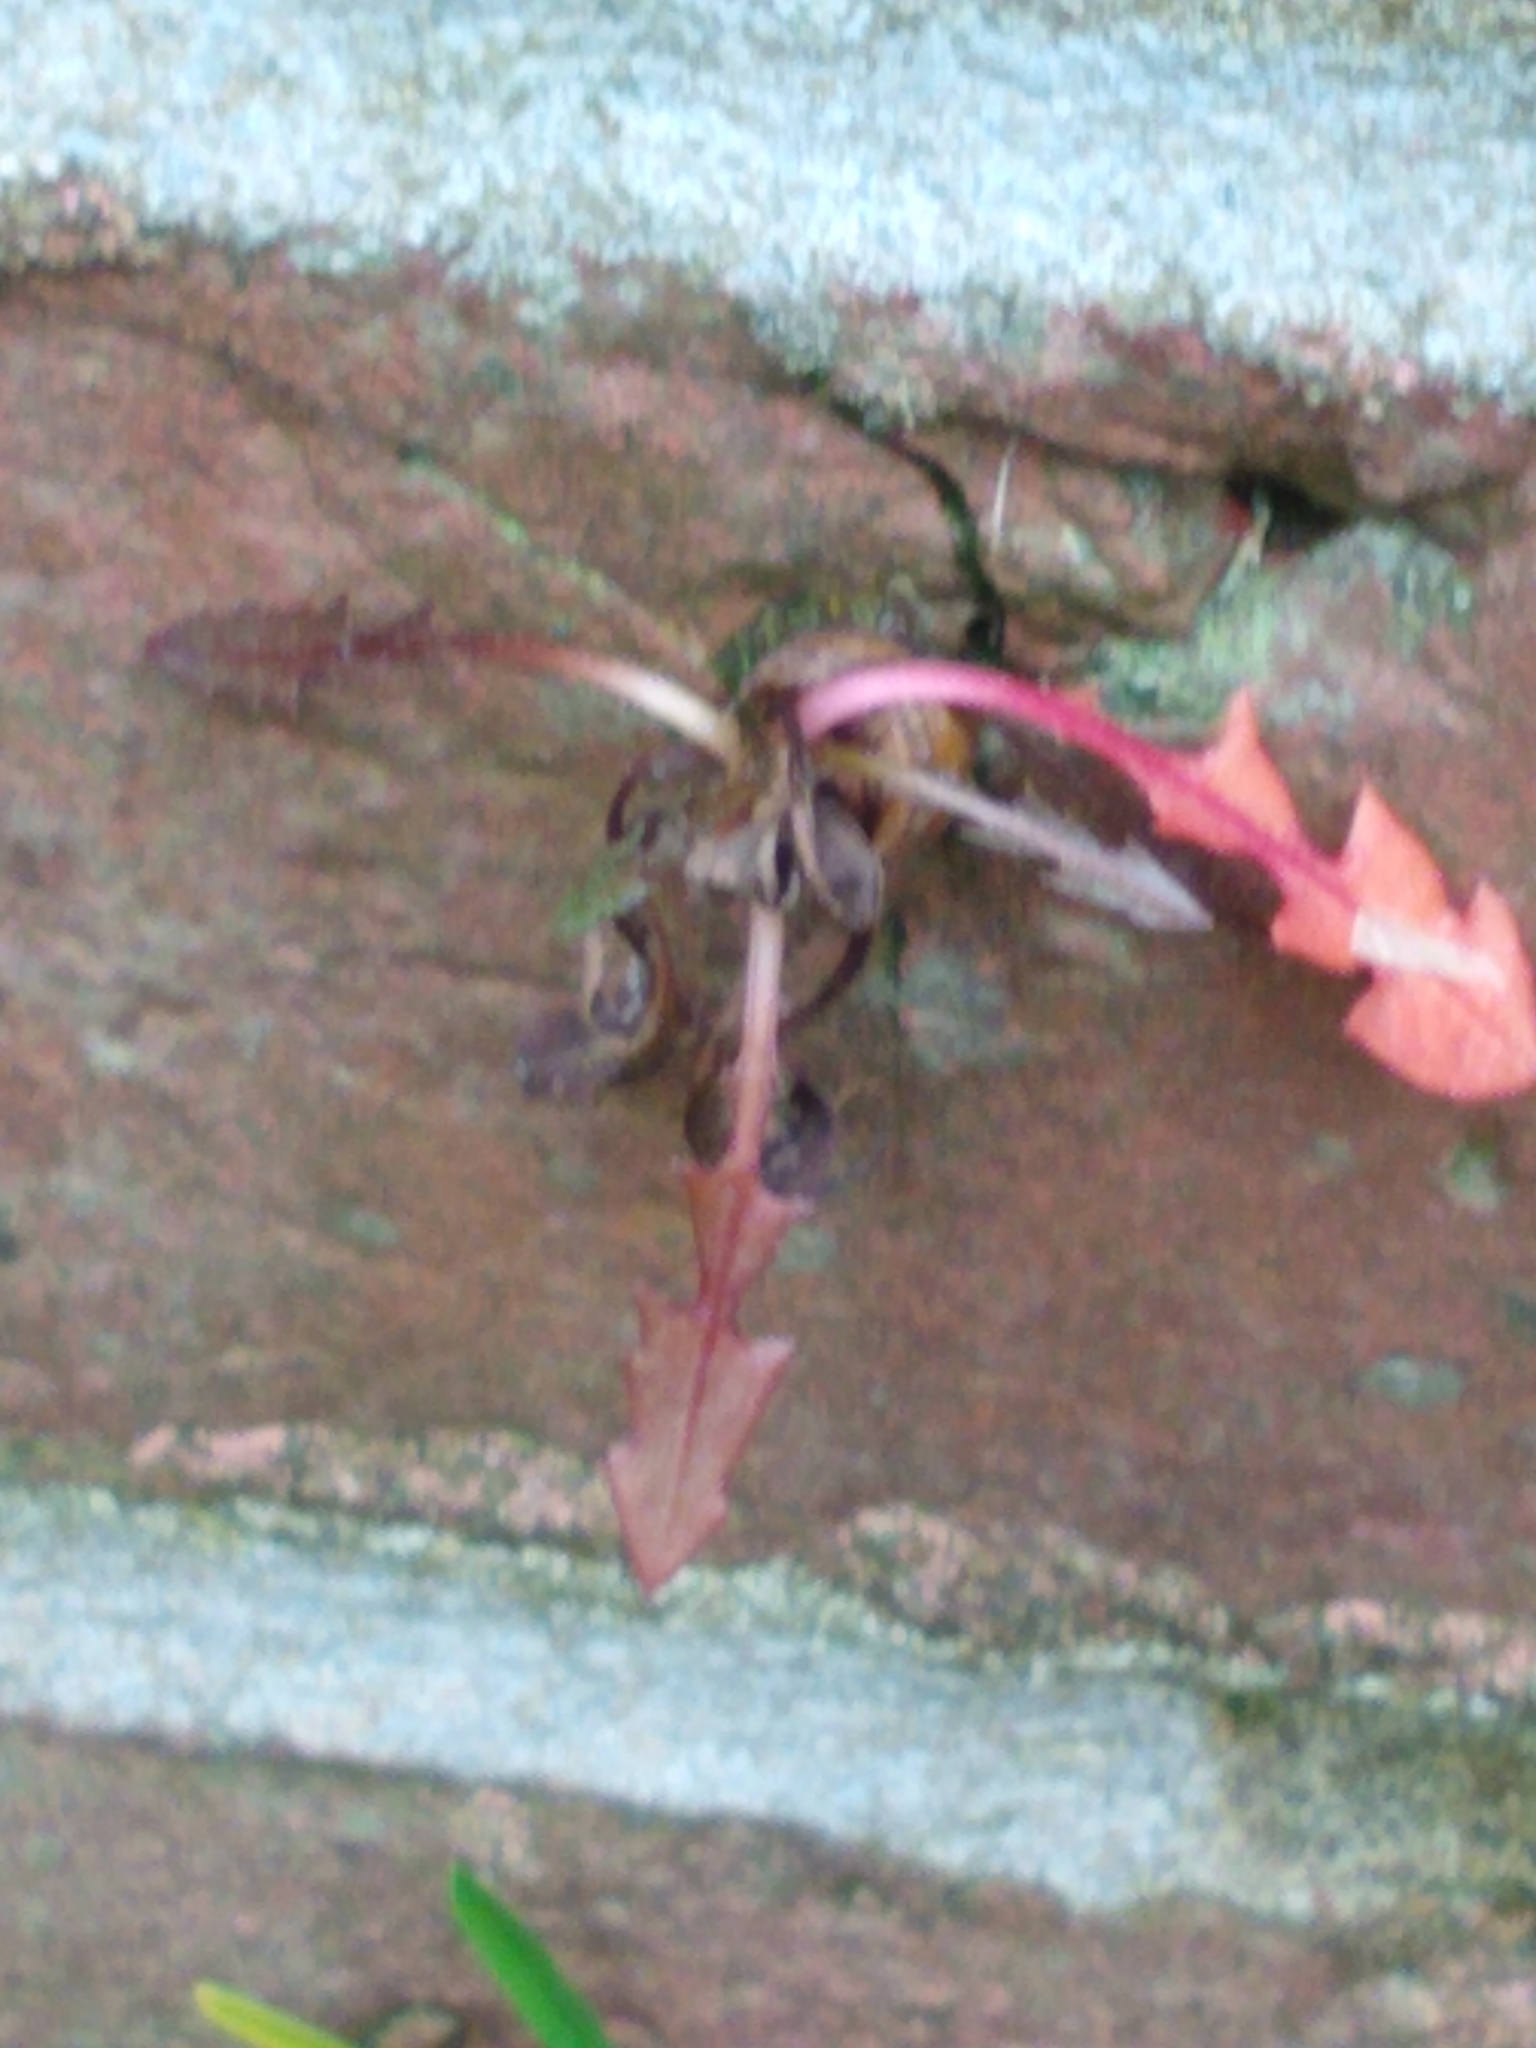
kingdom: Plantae
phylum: Tracheophyta
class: Magnoliopsida
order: Asterales
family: Asteraceae
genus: Taraxacum
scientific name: Taraxacum officinale
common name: Common dandelion
